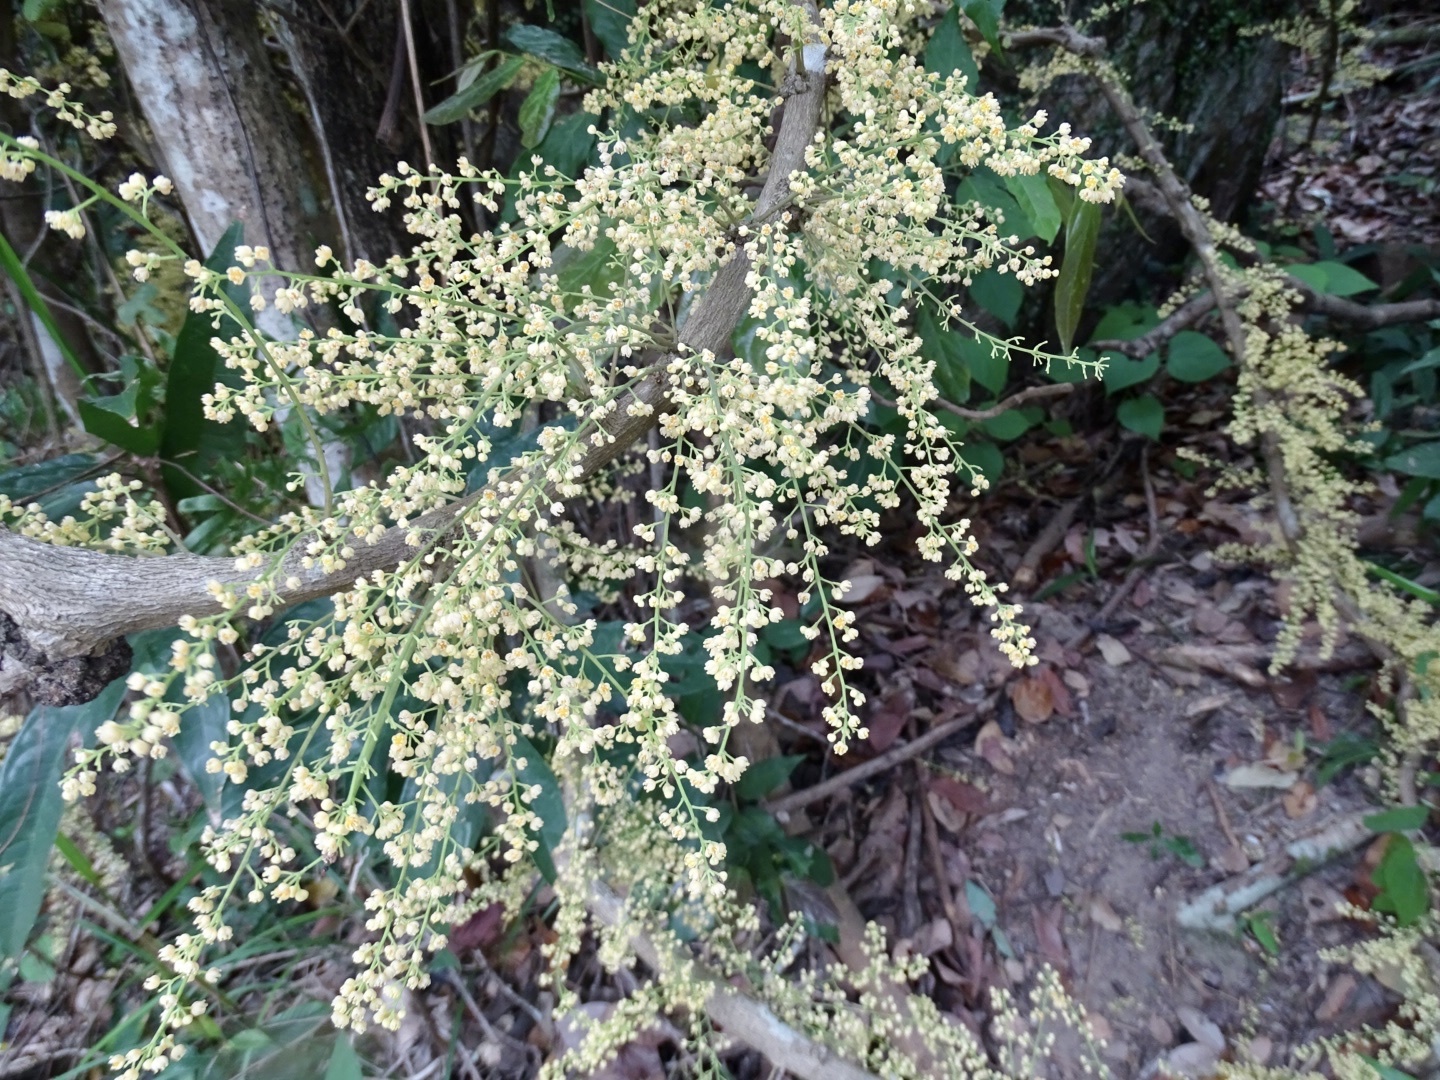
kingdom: Plantae
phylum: Tracheophyta
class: Magnoliopsida
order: Ranunculales
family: Menispermaceae
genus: Diploclisia
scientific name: Diploclisia glaucescens
